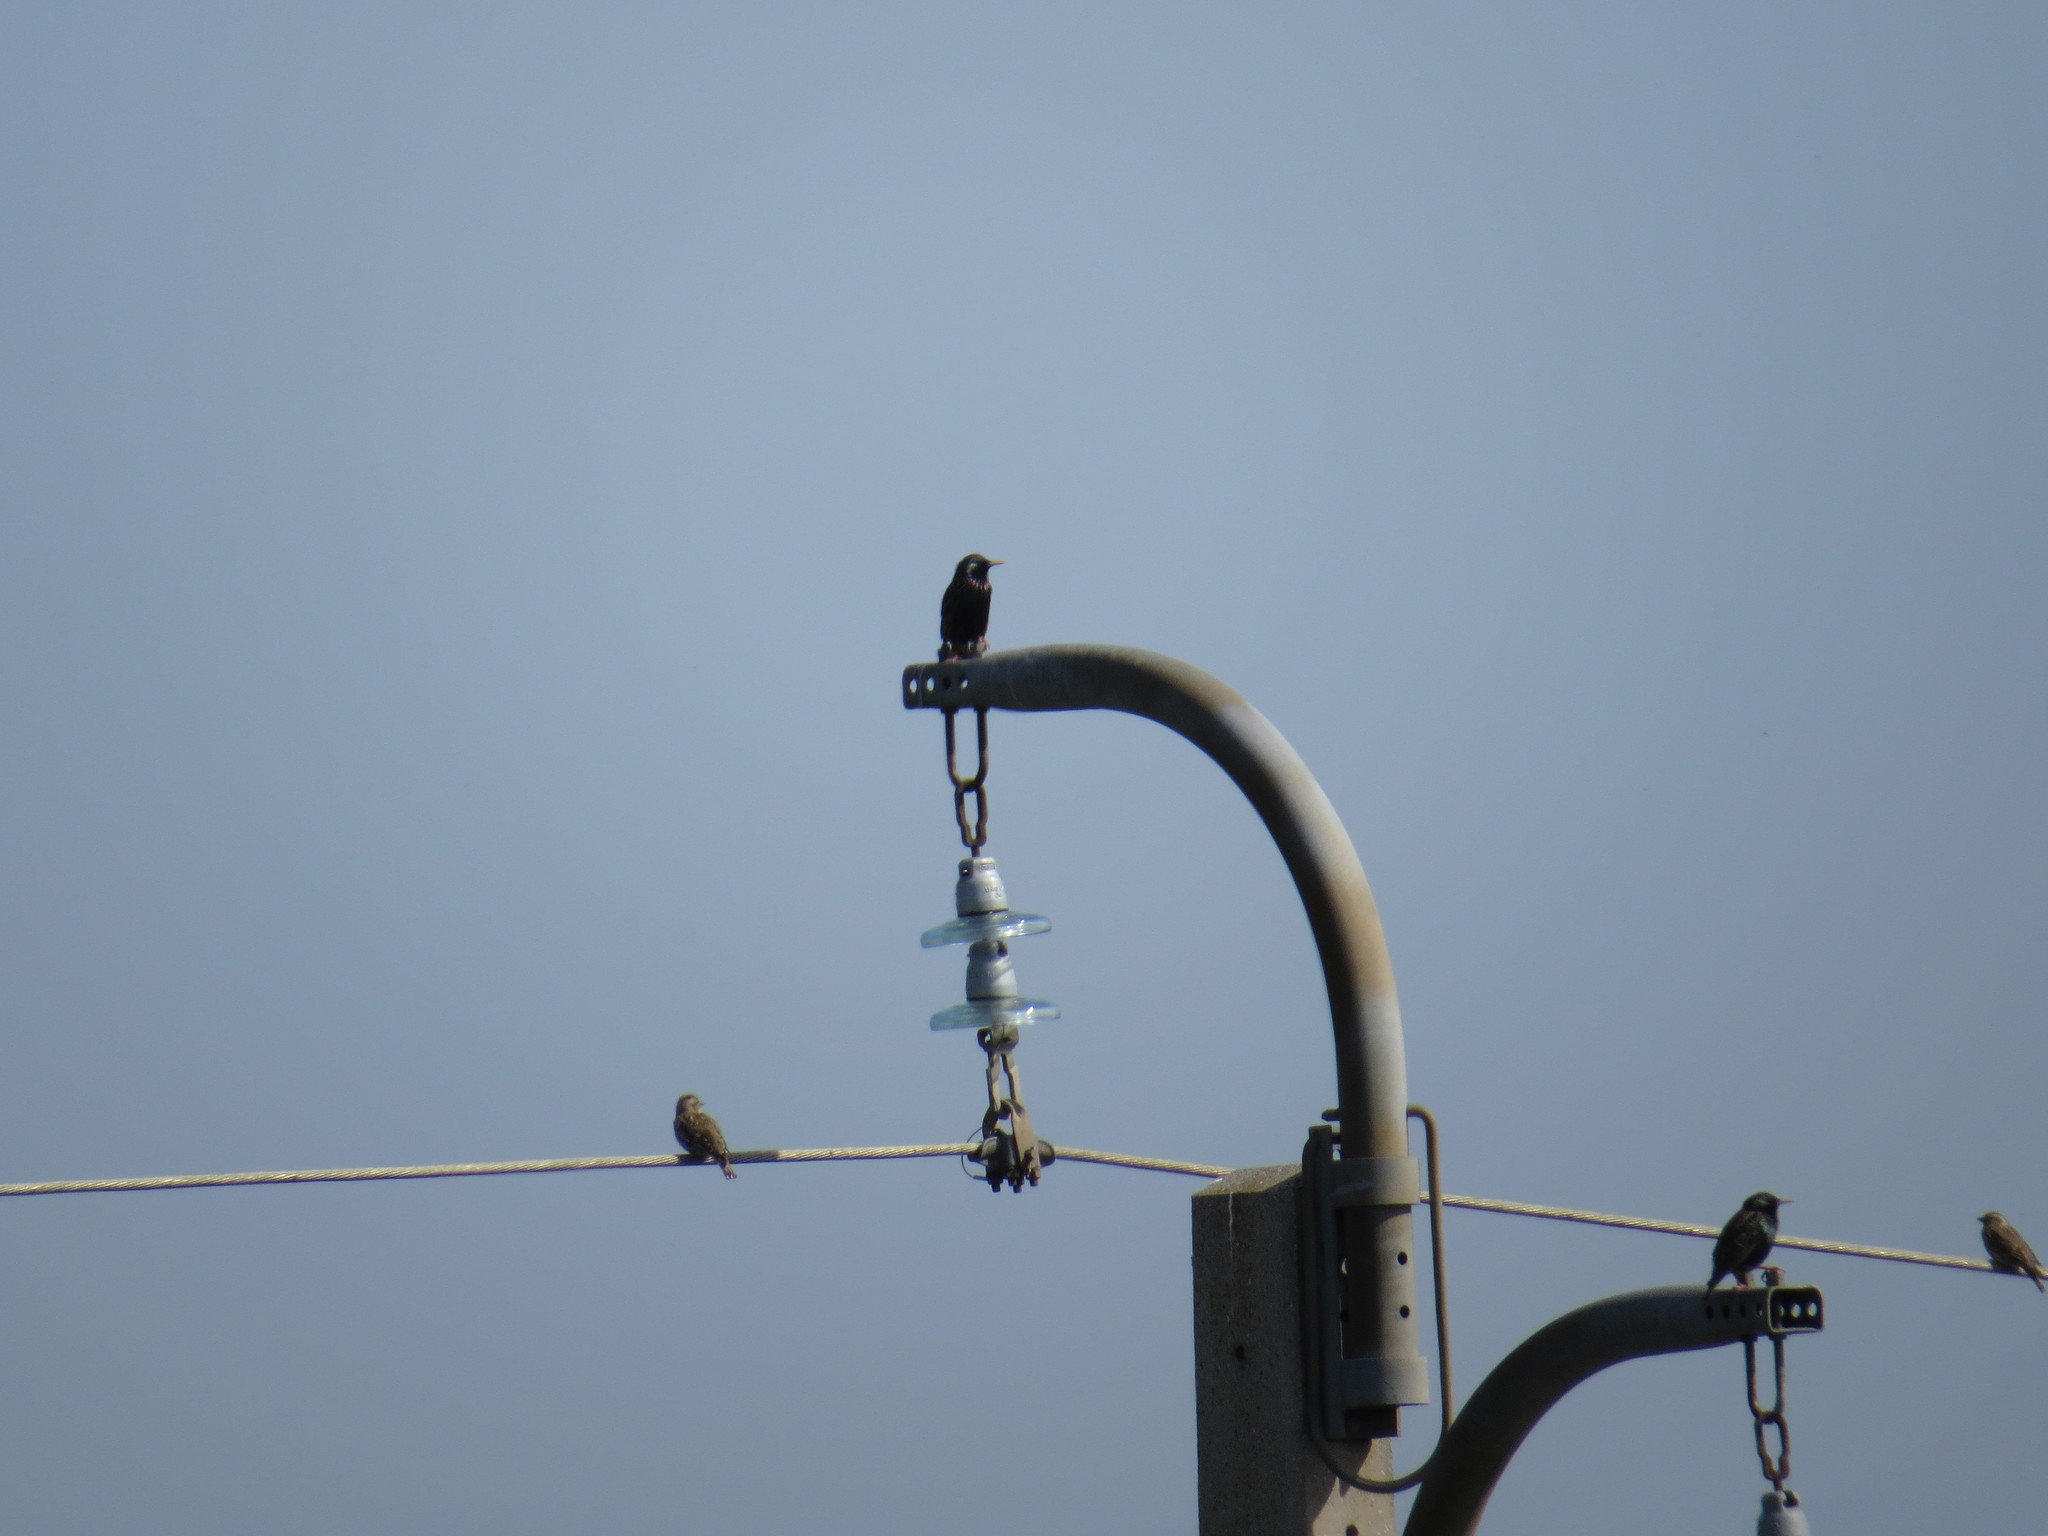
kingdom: Animalia
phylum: Chordata
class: Aves
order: Passeriformes
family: Sturnidae
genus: Sturnus
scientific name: Sturnus vulgaris
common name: Common starling
